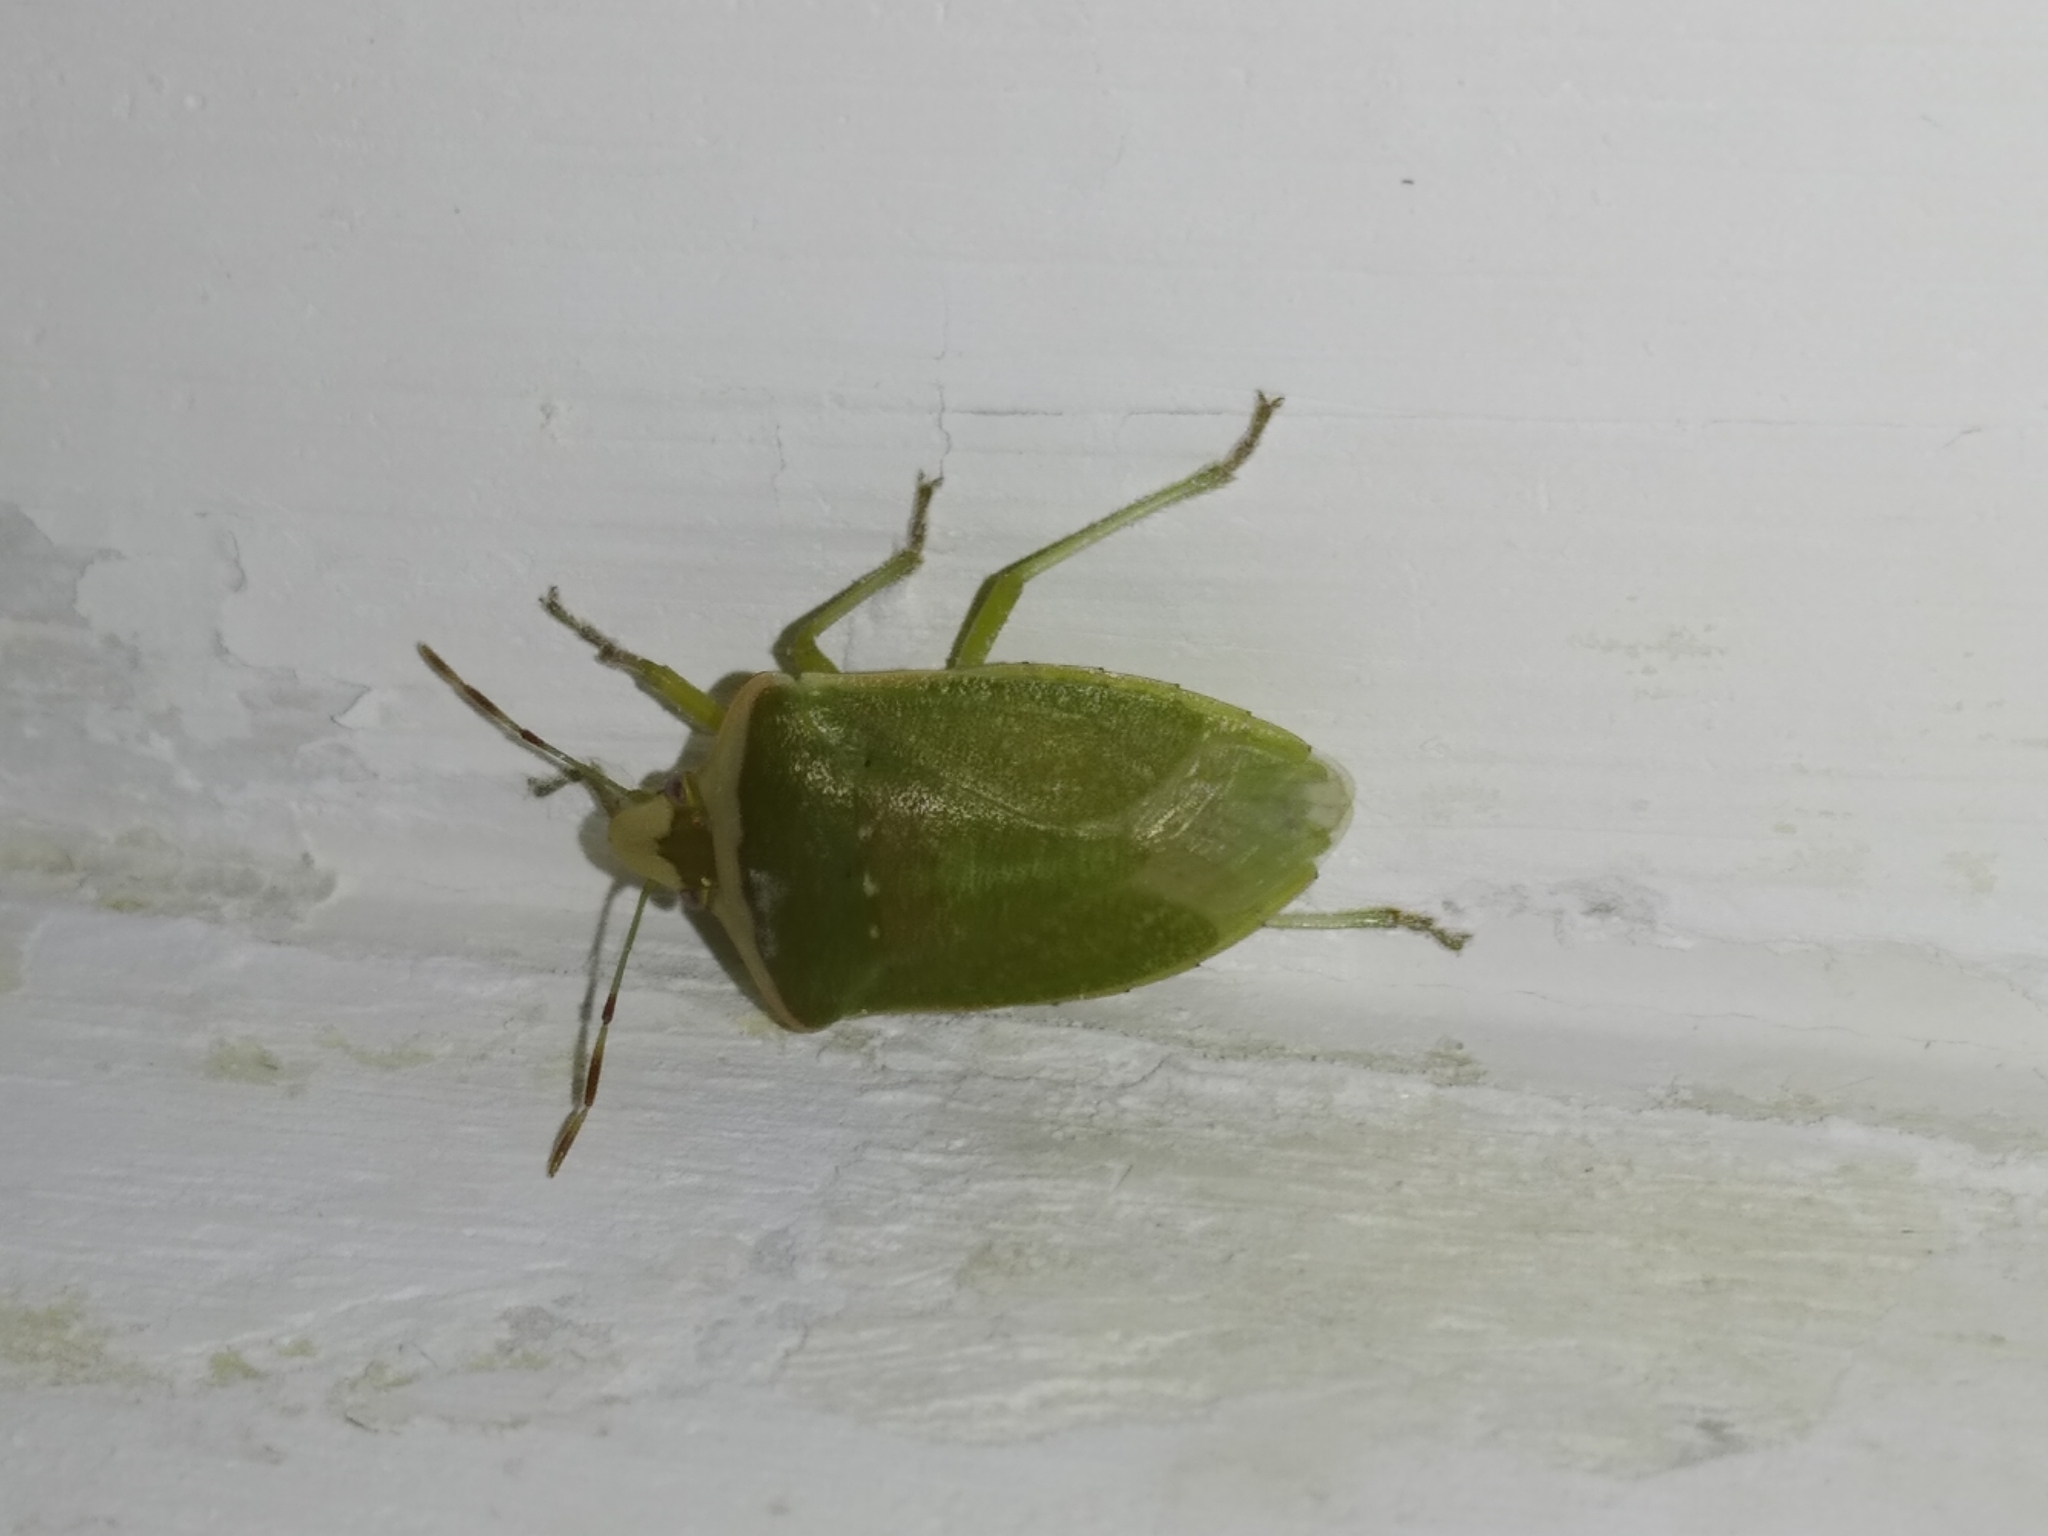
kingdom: Animalia
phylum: Arthropoda
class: Insecta
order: Hemiptera
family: Pentatomidae
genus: Nezara
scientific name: Nezara viridula
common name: Southern green stink bug
